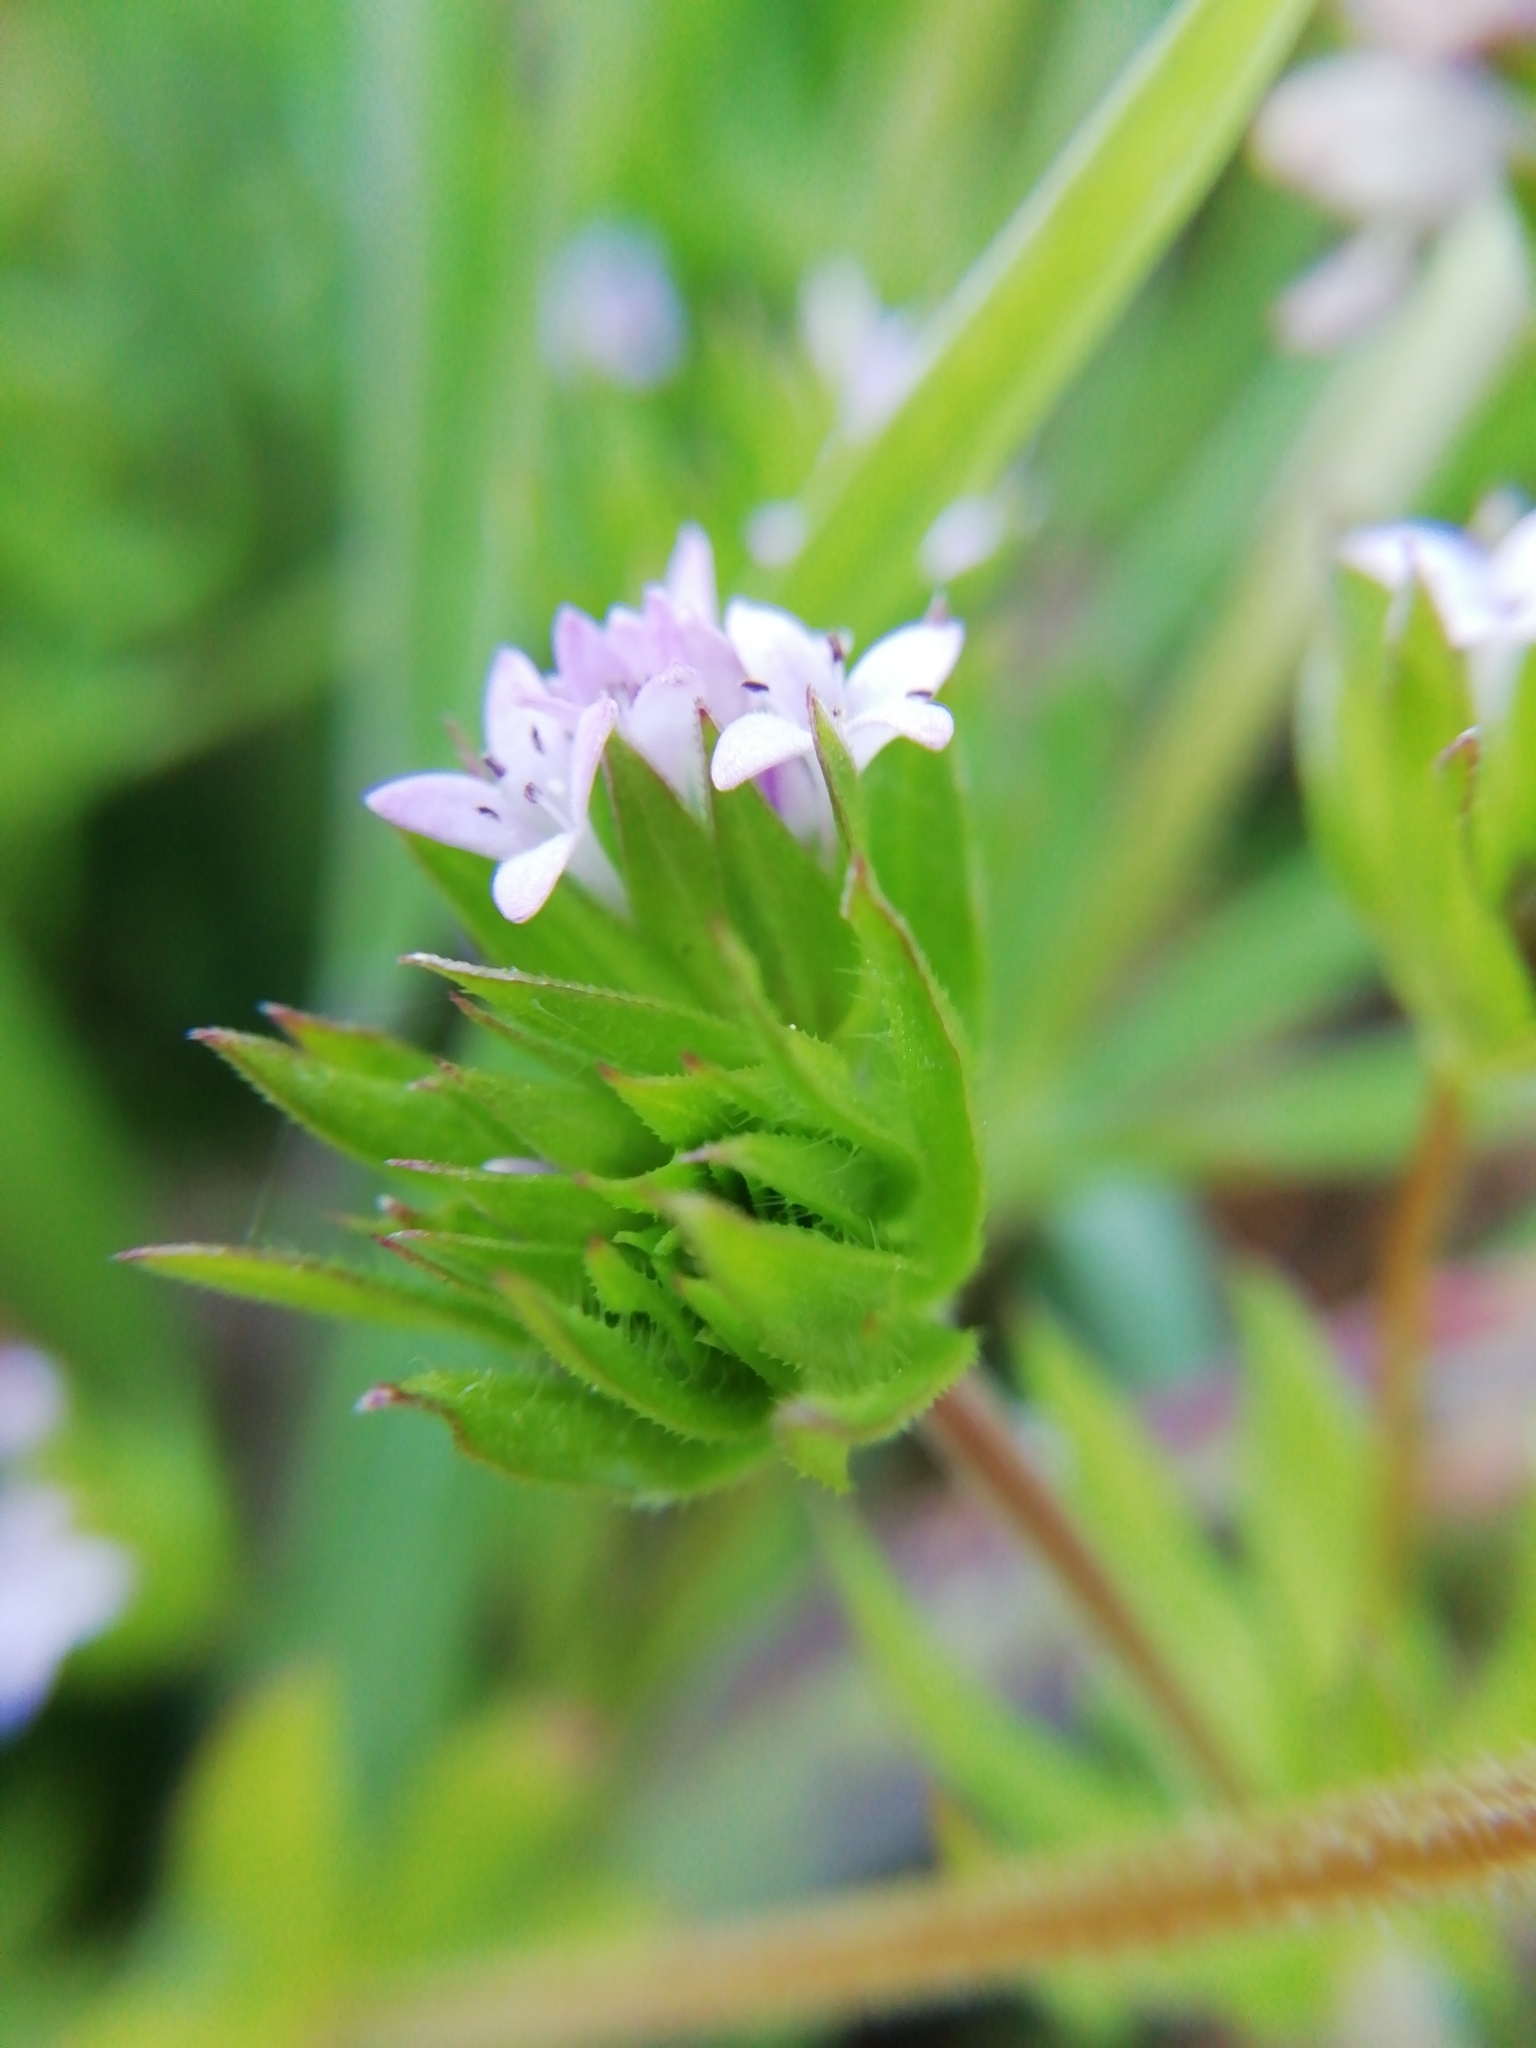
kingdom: Plantae
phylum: Tracheophyta
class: Magnoliopsida
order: Gentianales
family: Rubiaceae
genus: Sherardia
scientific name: Sherardia arvensis
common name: Field madder
